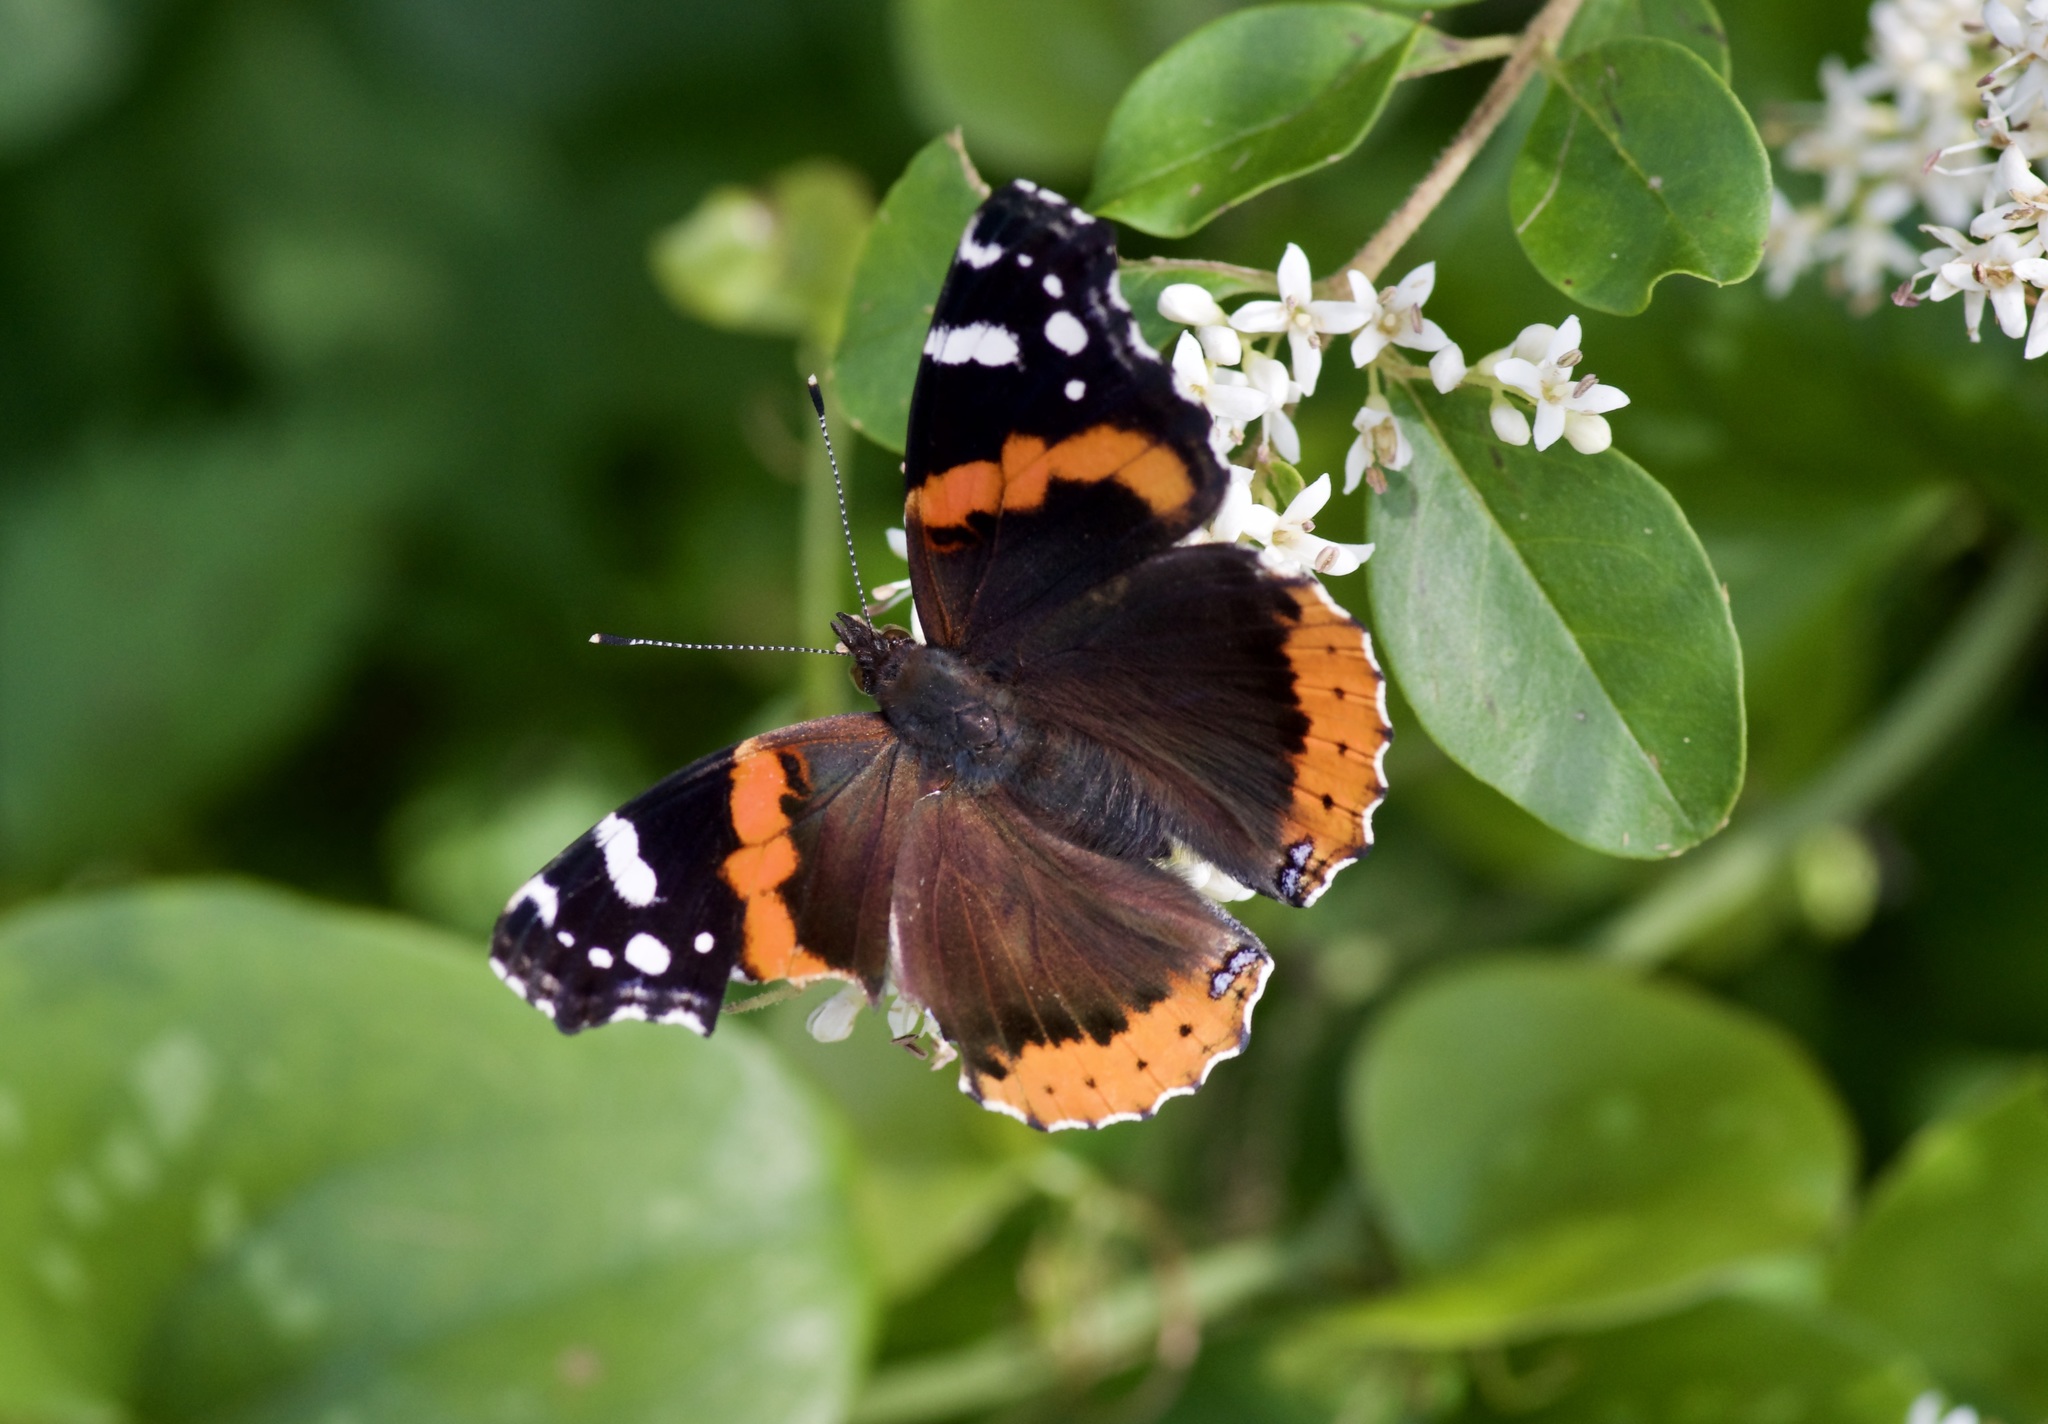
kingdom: Animalia
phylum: Arthropoda
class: Insecta
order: Lepidoptera
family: Nymphalidae
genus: Vanessa
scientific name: Vanessa atalanta
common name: Red admiral
